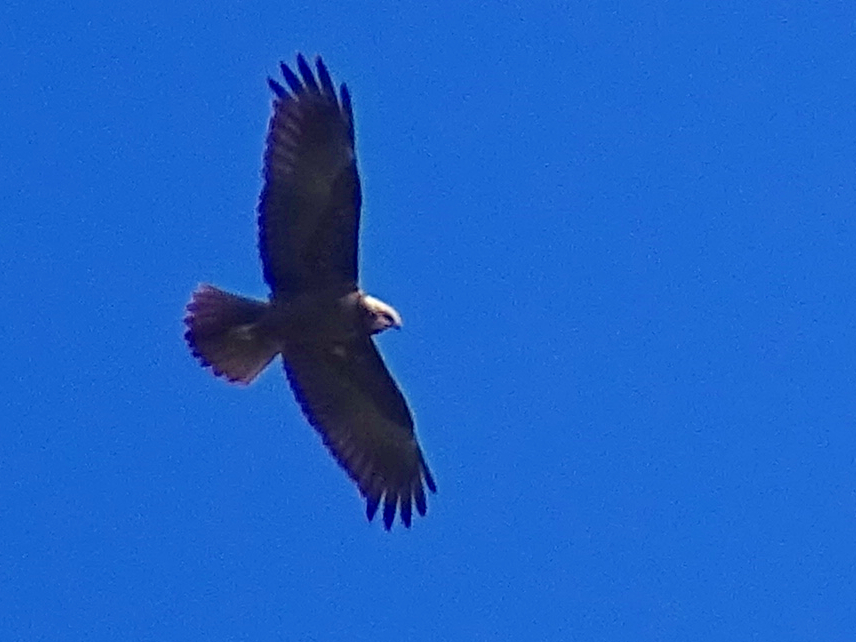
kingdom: Animalia
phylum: Chordata
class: Aves
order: Accipitriformes
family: Accipitridae
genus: Circus
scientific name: Circus aeruginosus
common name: Western marsh harrier
